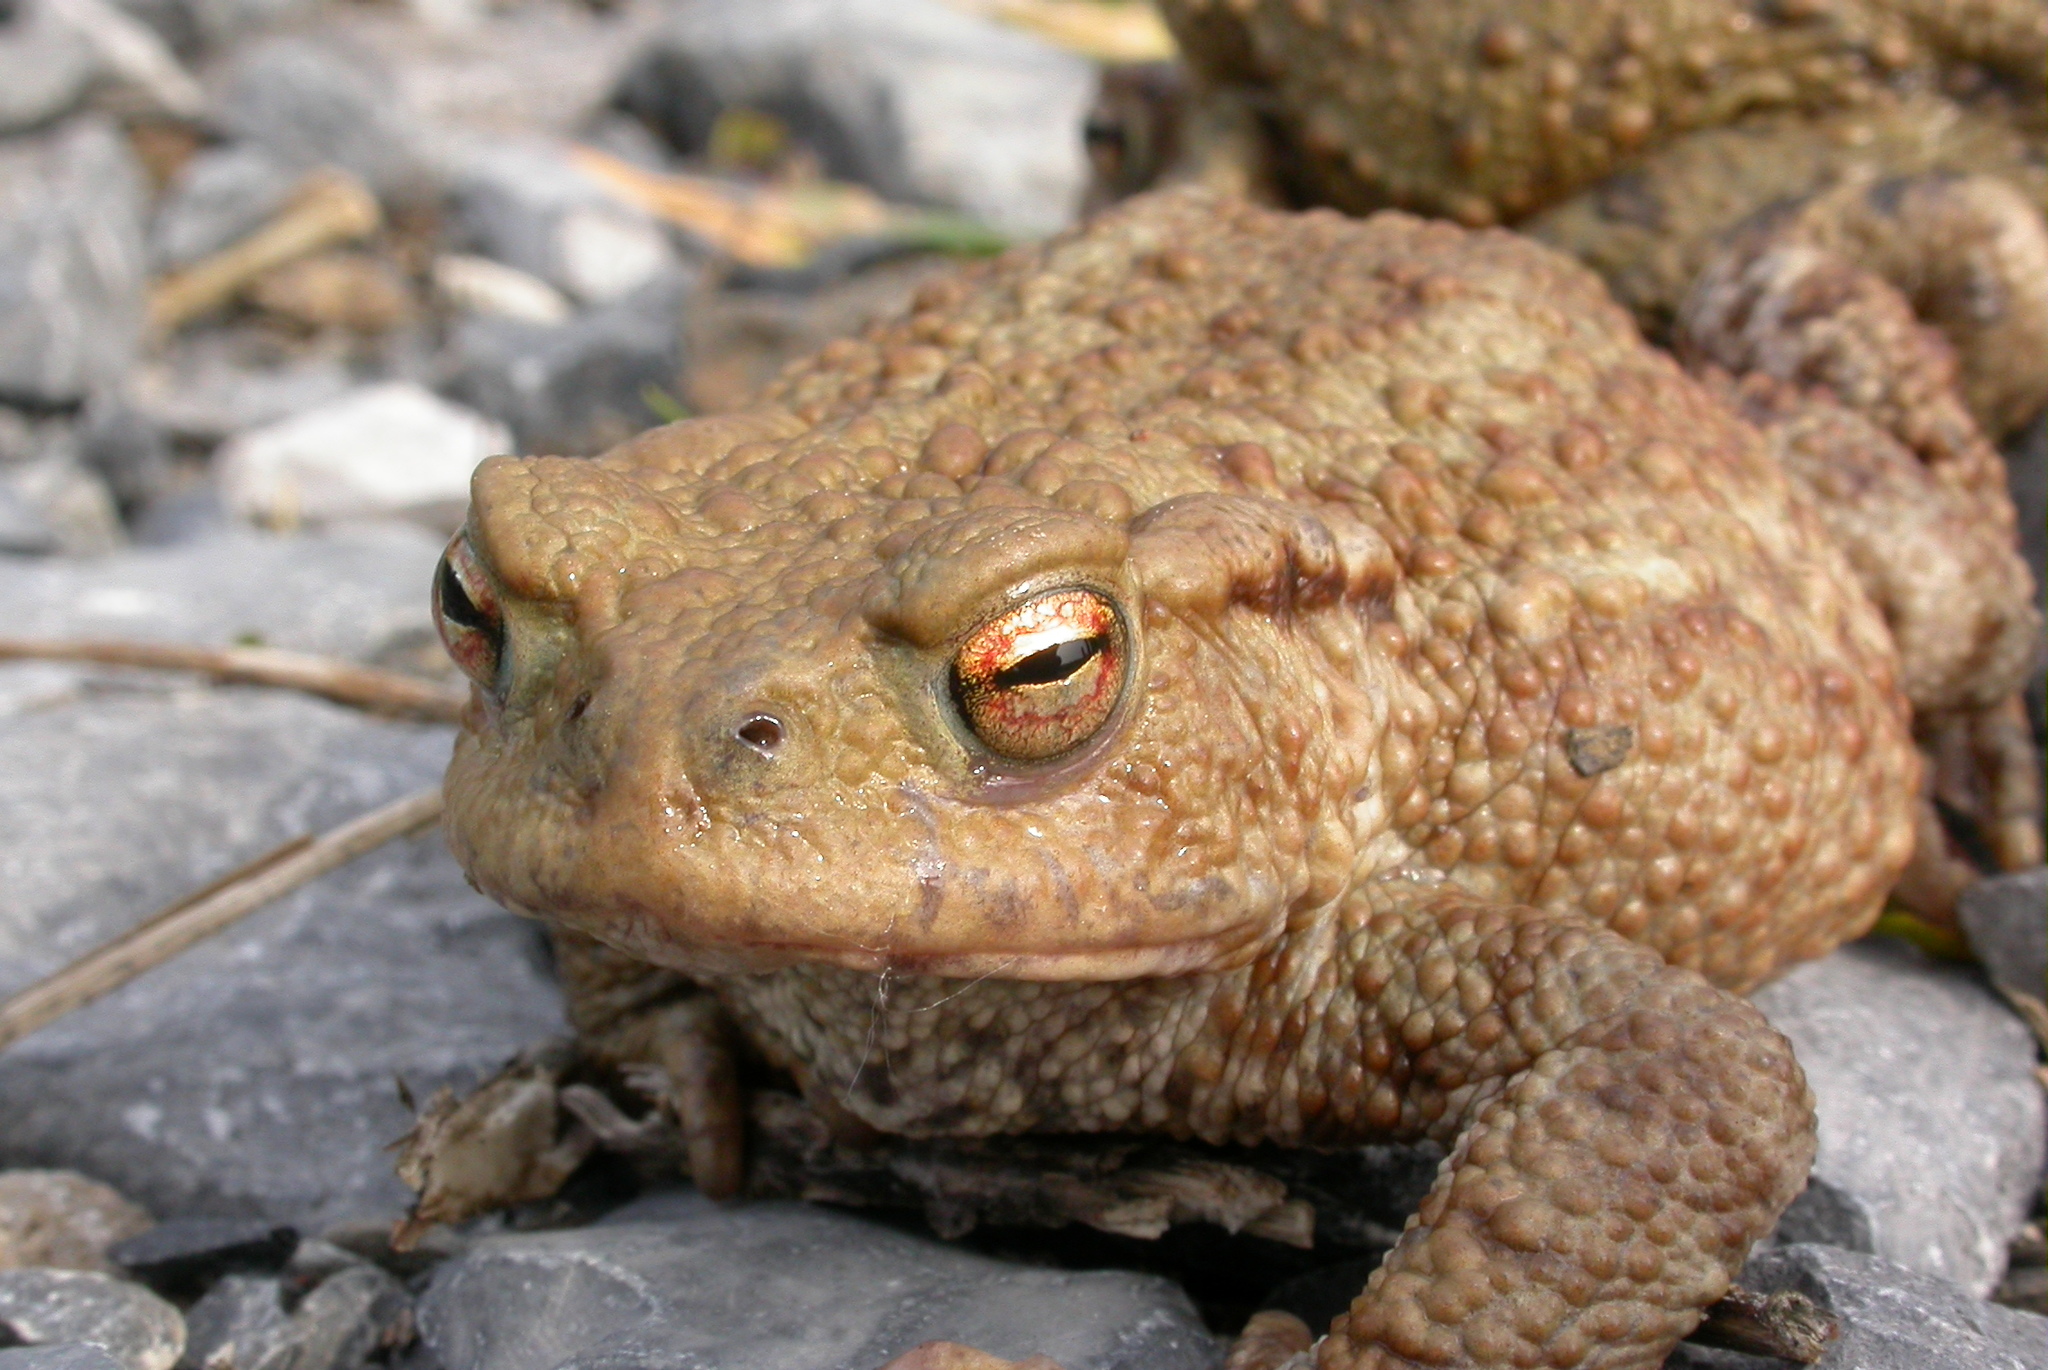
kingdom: Animalia
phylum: Arthropoda
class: Insecta
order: Diptera
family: Calliphoridae
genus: Lucilia
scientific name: Lucilia bufonivora
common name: Anuran parasite
